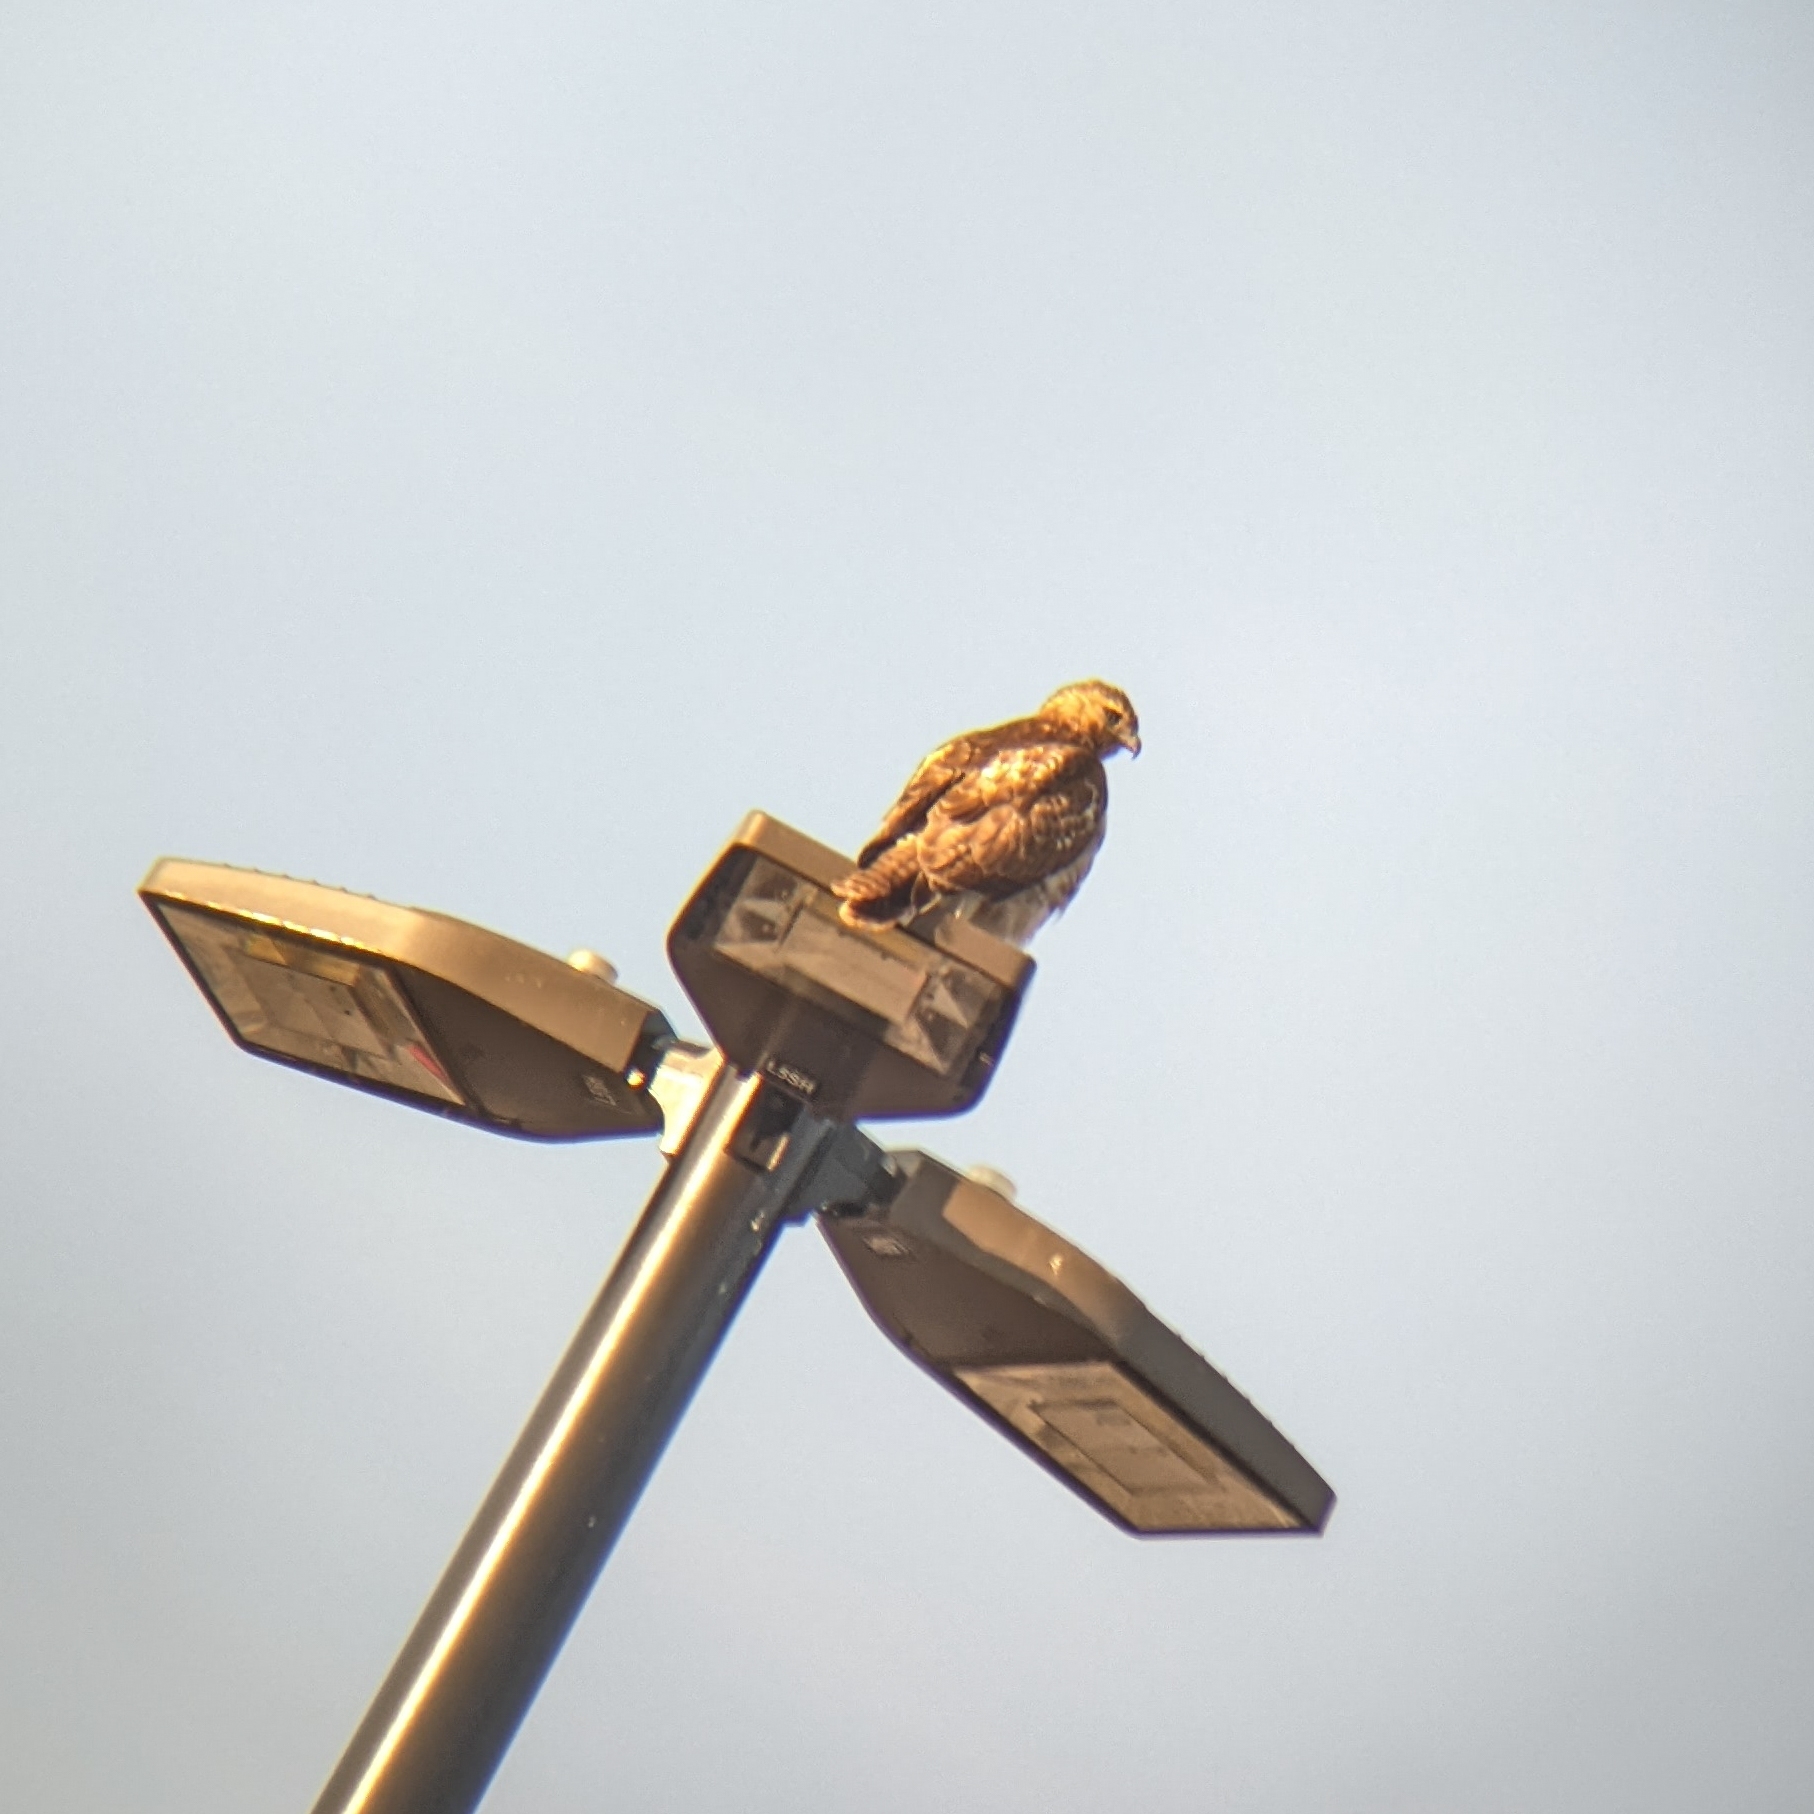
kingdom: Animalia
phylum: Chordata
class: Aves
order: Accipitriformes
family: Accipitridae
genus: Buteo
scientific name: Buteo jamaicensis
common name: Red-tailed hawk
